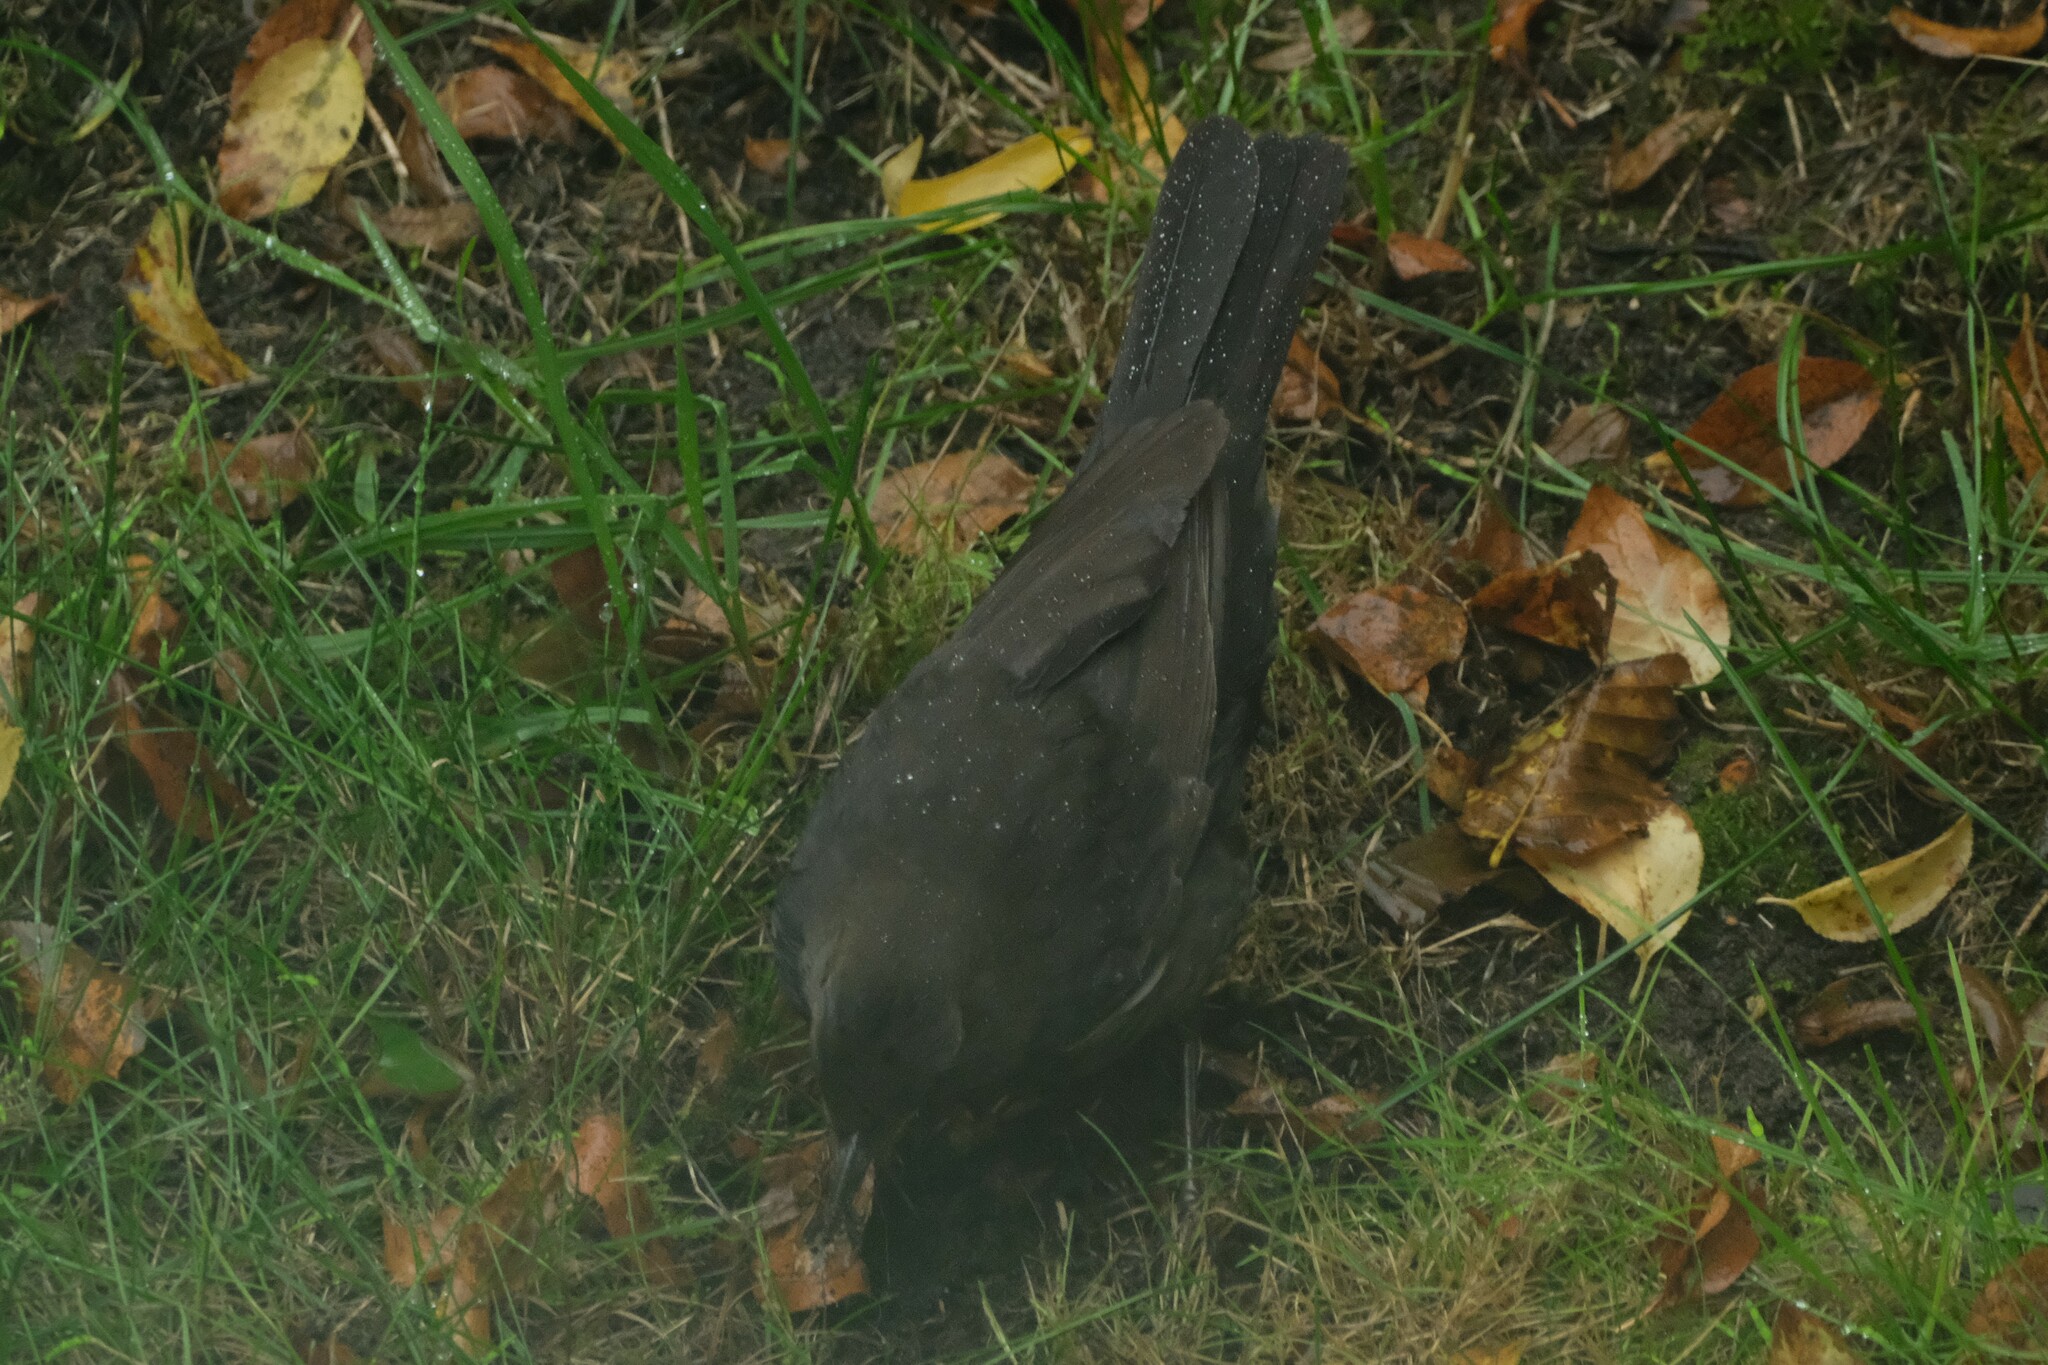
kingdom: Animalia
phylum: Chordata
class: Aves
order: Passeriformes
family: Turdidae
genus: Turdus
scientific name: Turdus merula
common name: Common blackbird
